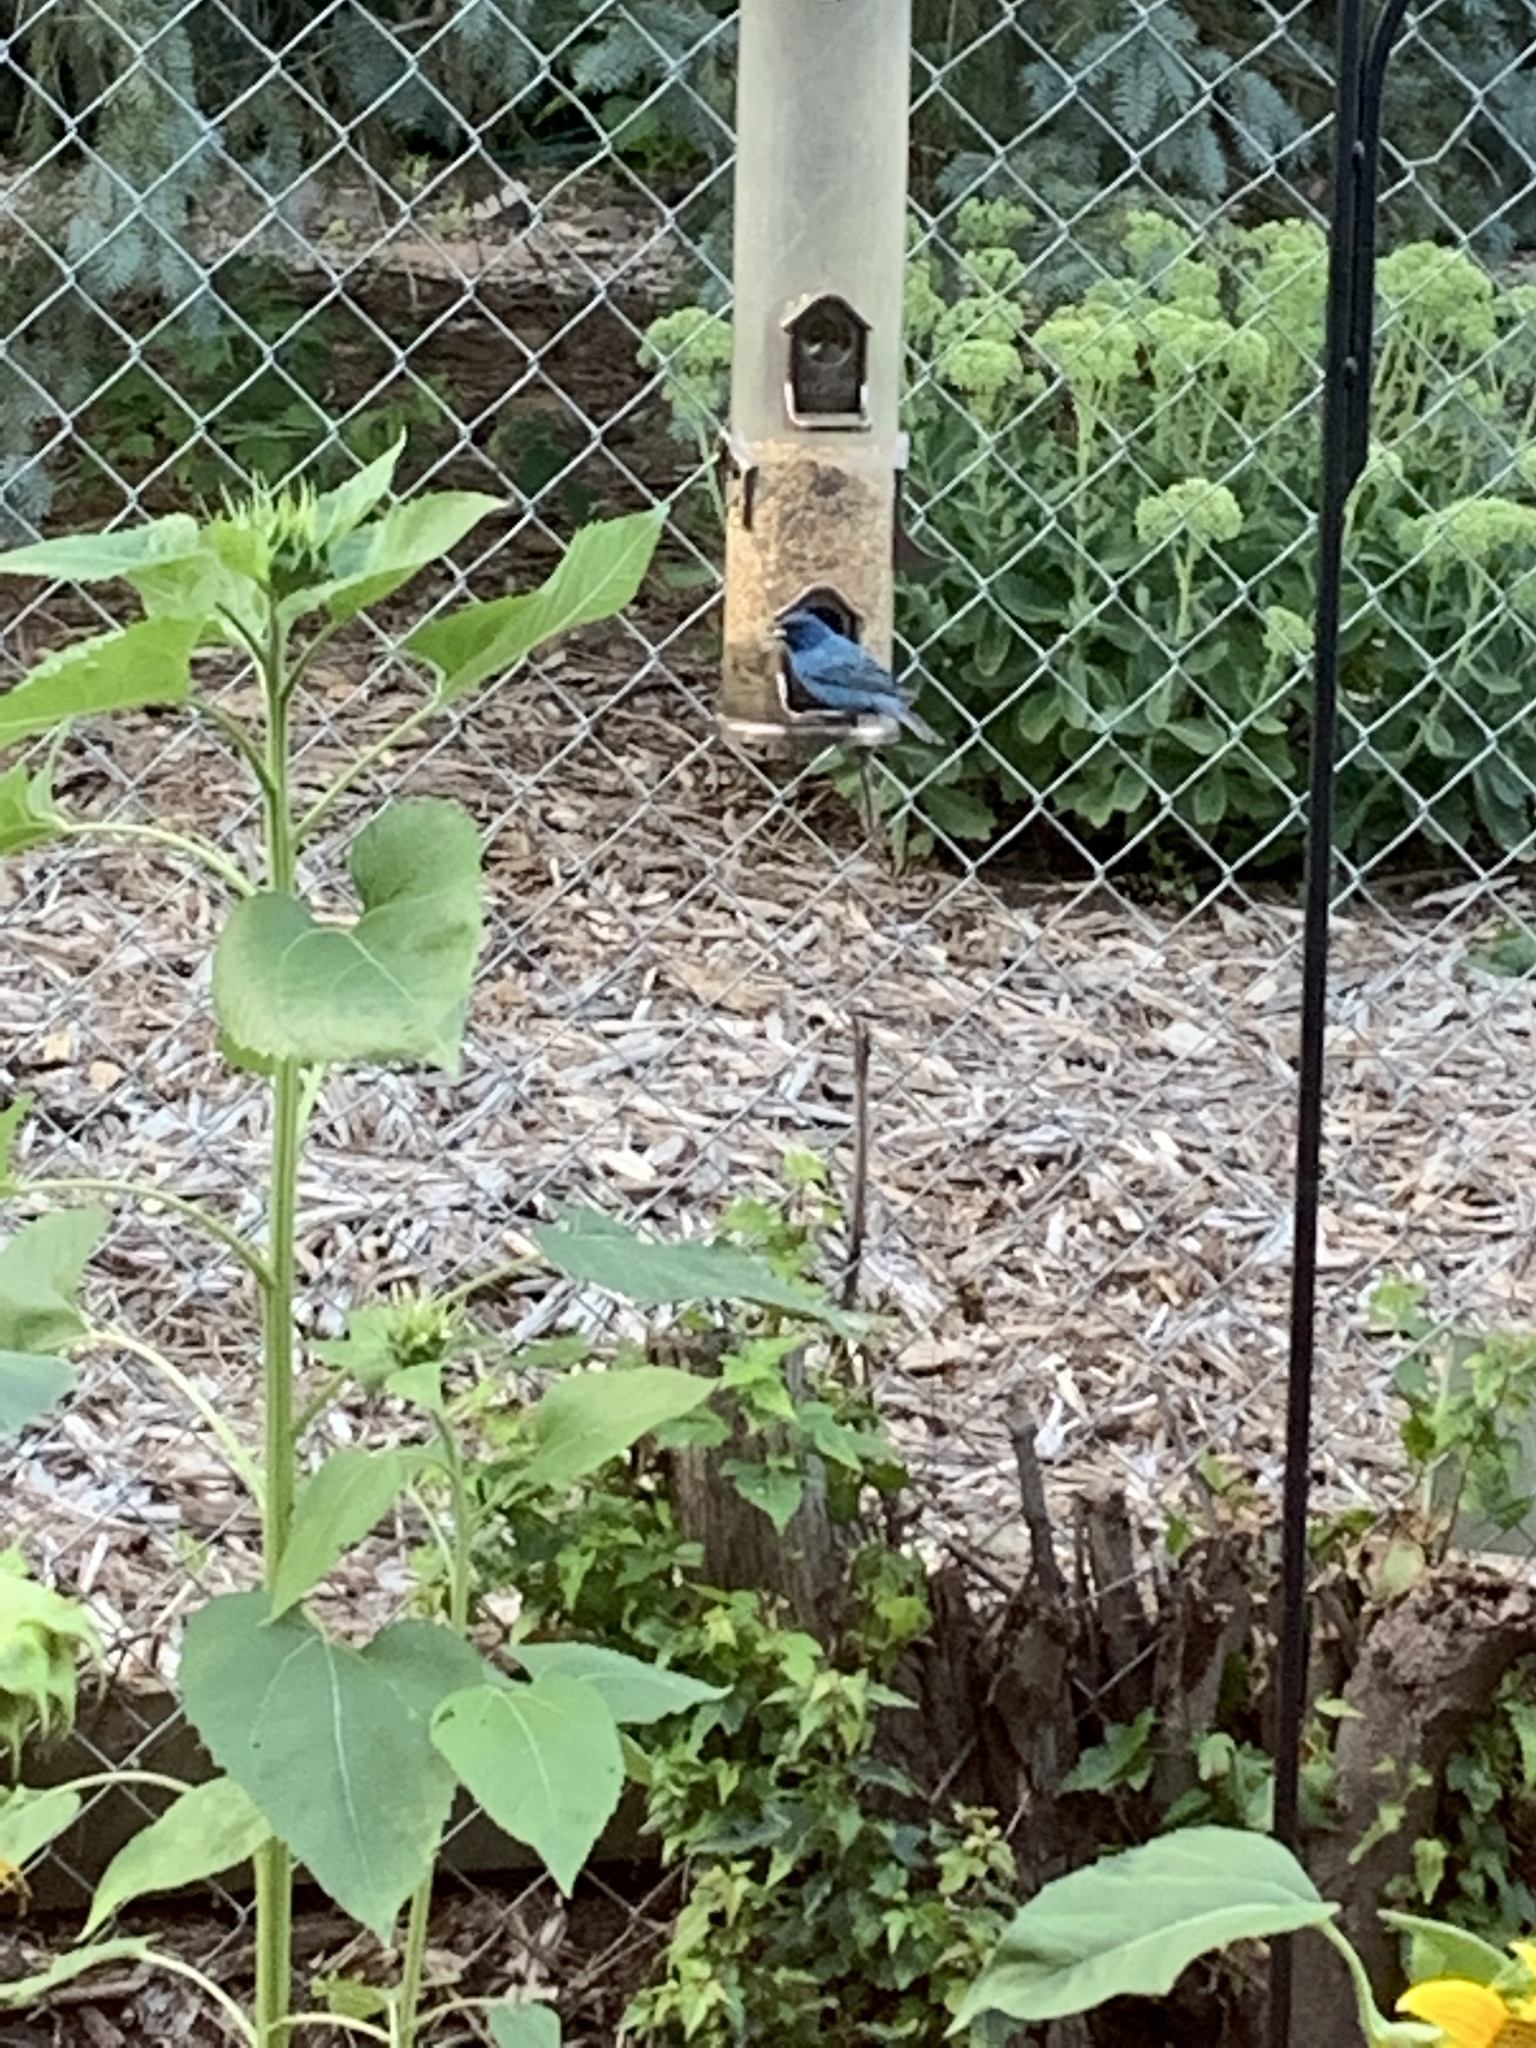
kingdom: Animalia
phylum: Chordata
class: Aves
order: Passeriformes
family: Cardinalidae
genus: Passerina
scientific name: Passerina cyanea
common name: Indigo bunting
